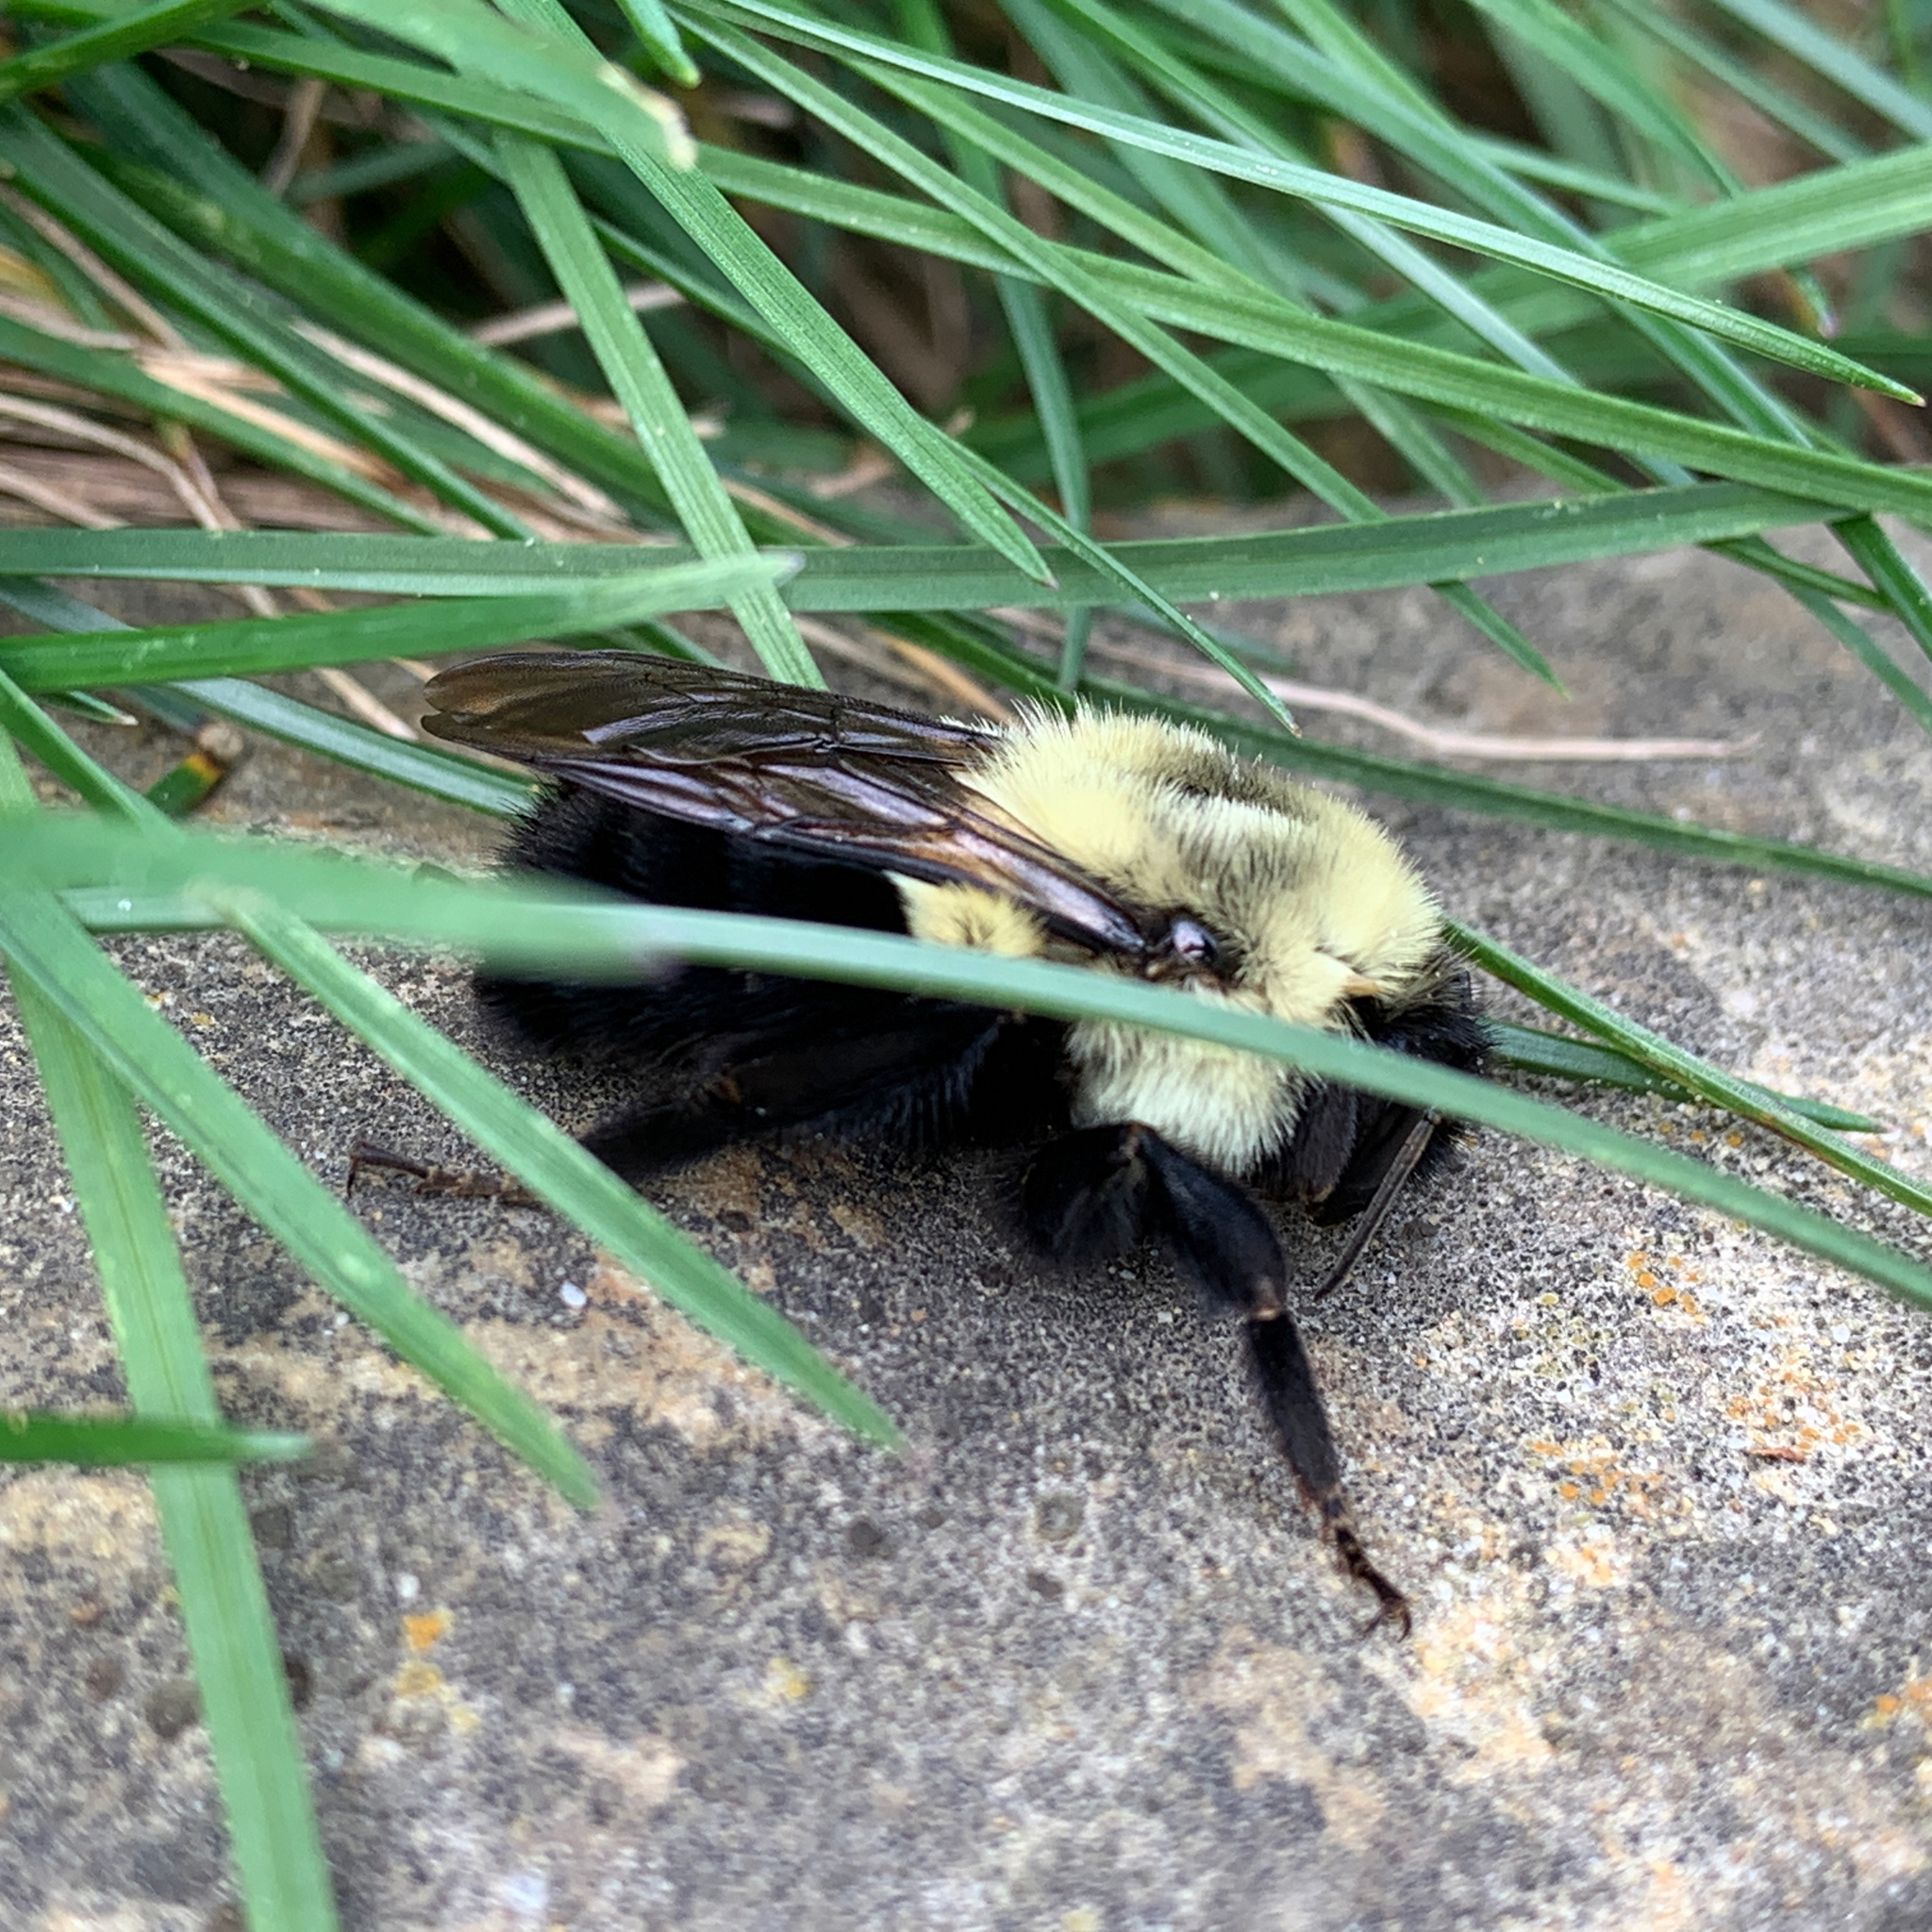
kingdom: Animalia
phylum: Arthropoda
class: Insecta
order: Hymenoptera
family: Apidae
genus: Bombus
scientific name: Bombus impatiens
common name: Common eastern bumble bee
